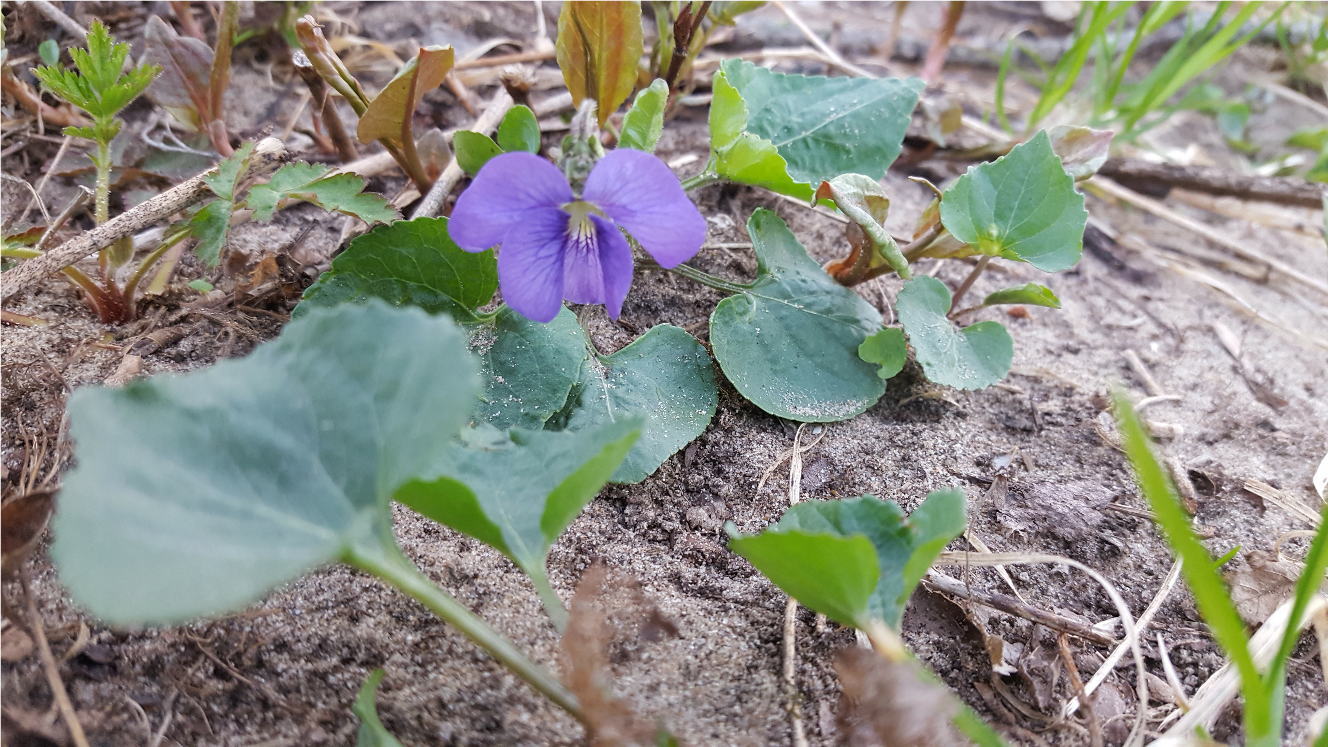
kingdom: Plantae
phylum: Tracheophyta
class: Magnoliopsida
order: Malpighiales
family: Violaceae
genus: Viola
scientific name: Viola sororia
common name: Dooryard violet
